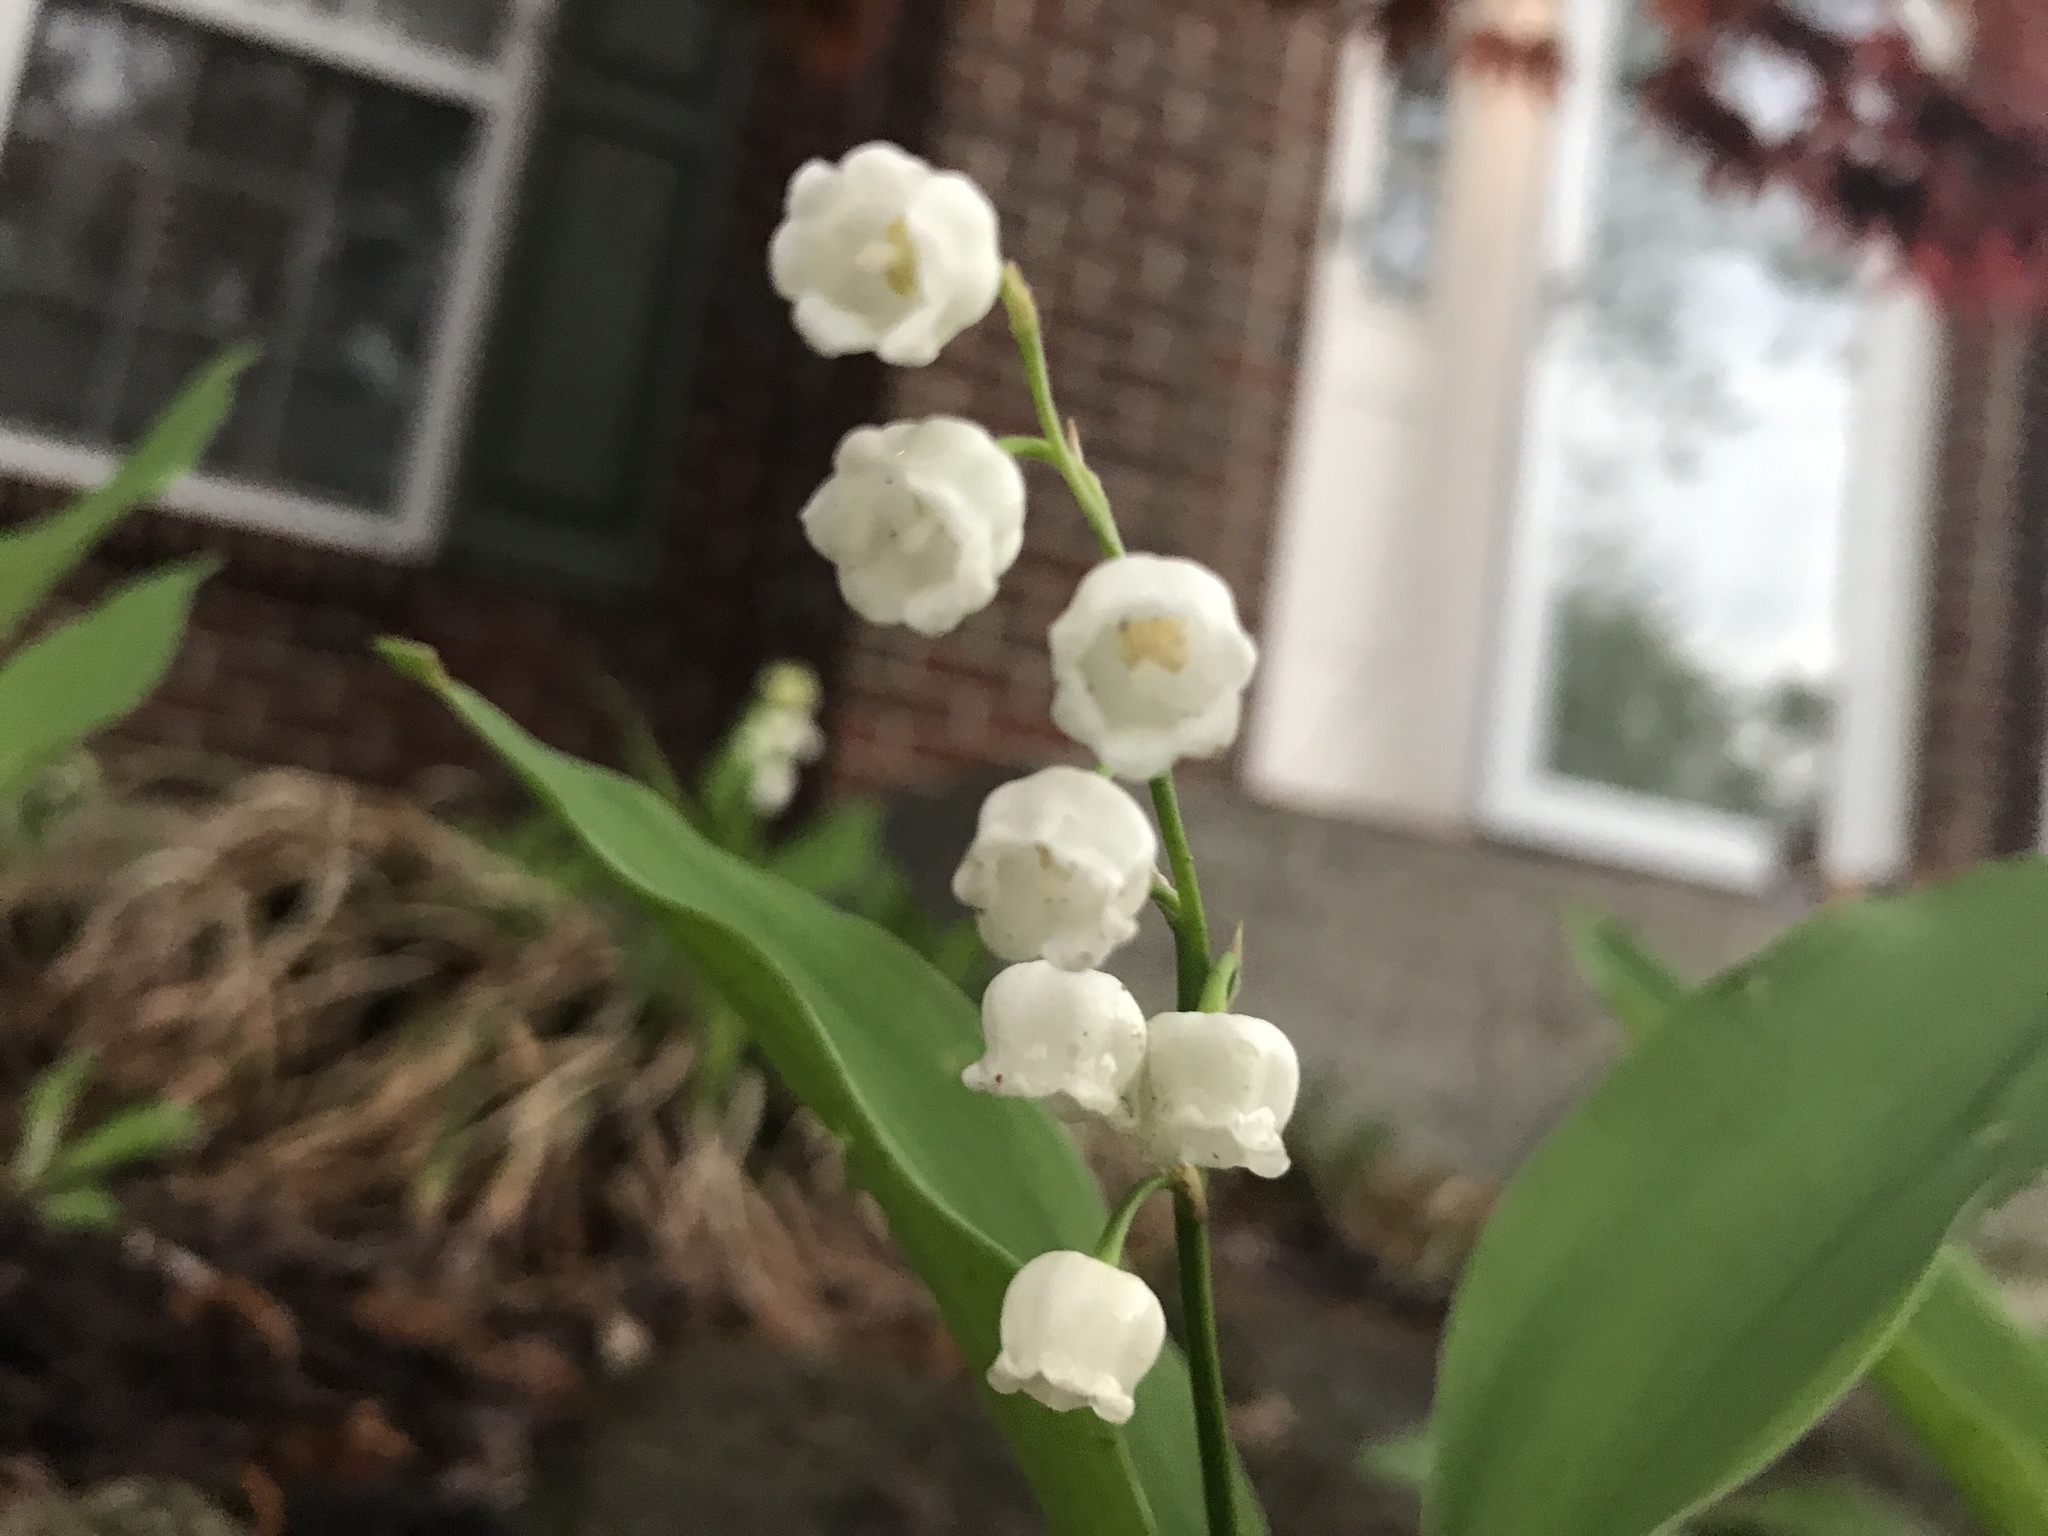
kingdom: Plantae
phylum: Tracheophyta
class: Liliopsida
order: Asparagales
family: Asparagaceae
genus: Convallaria
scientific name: Convallaria majalis
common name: Lily-of-the-valley
